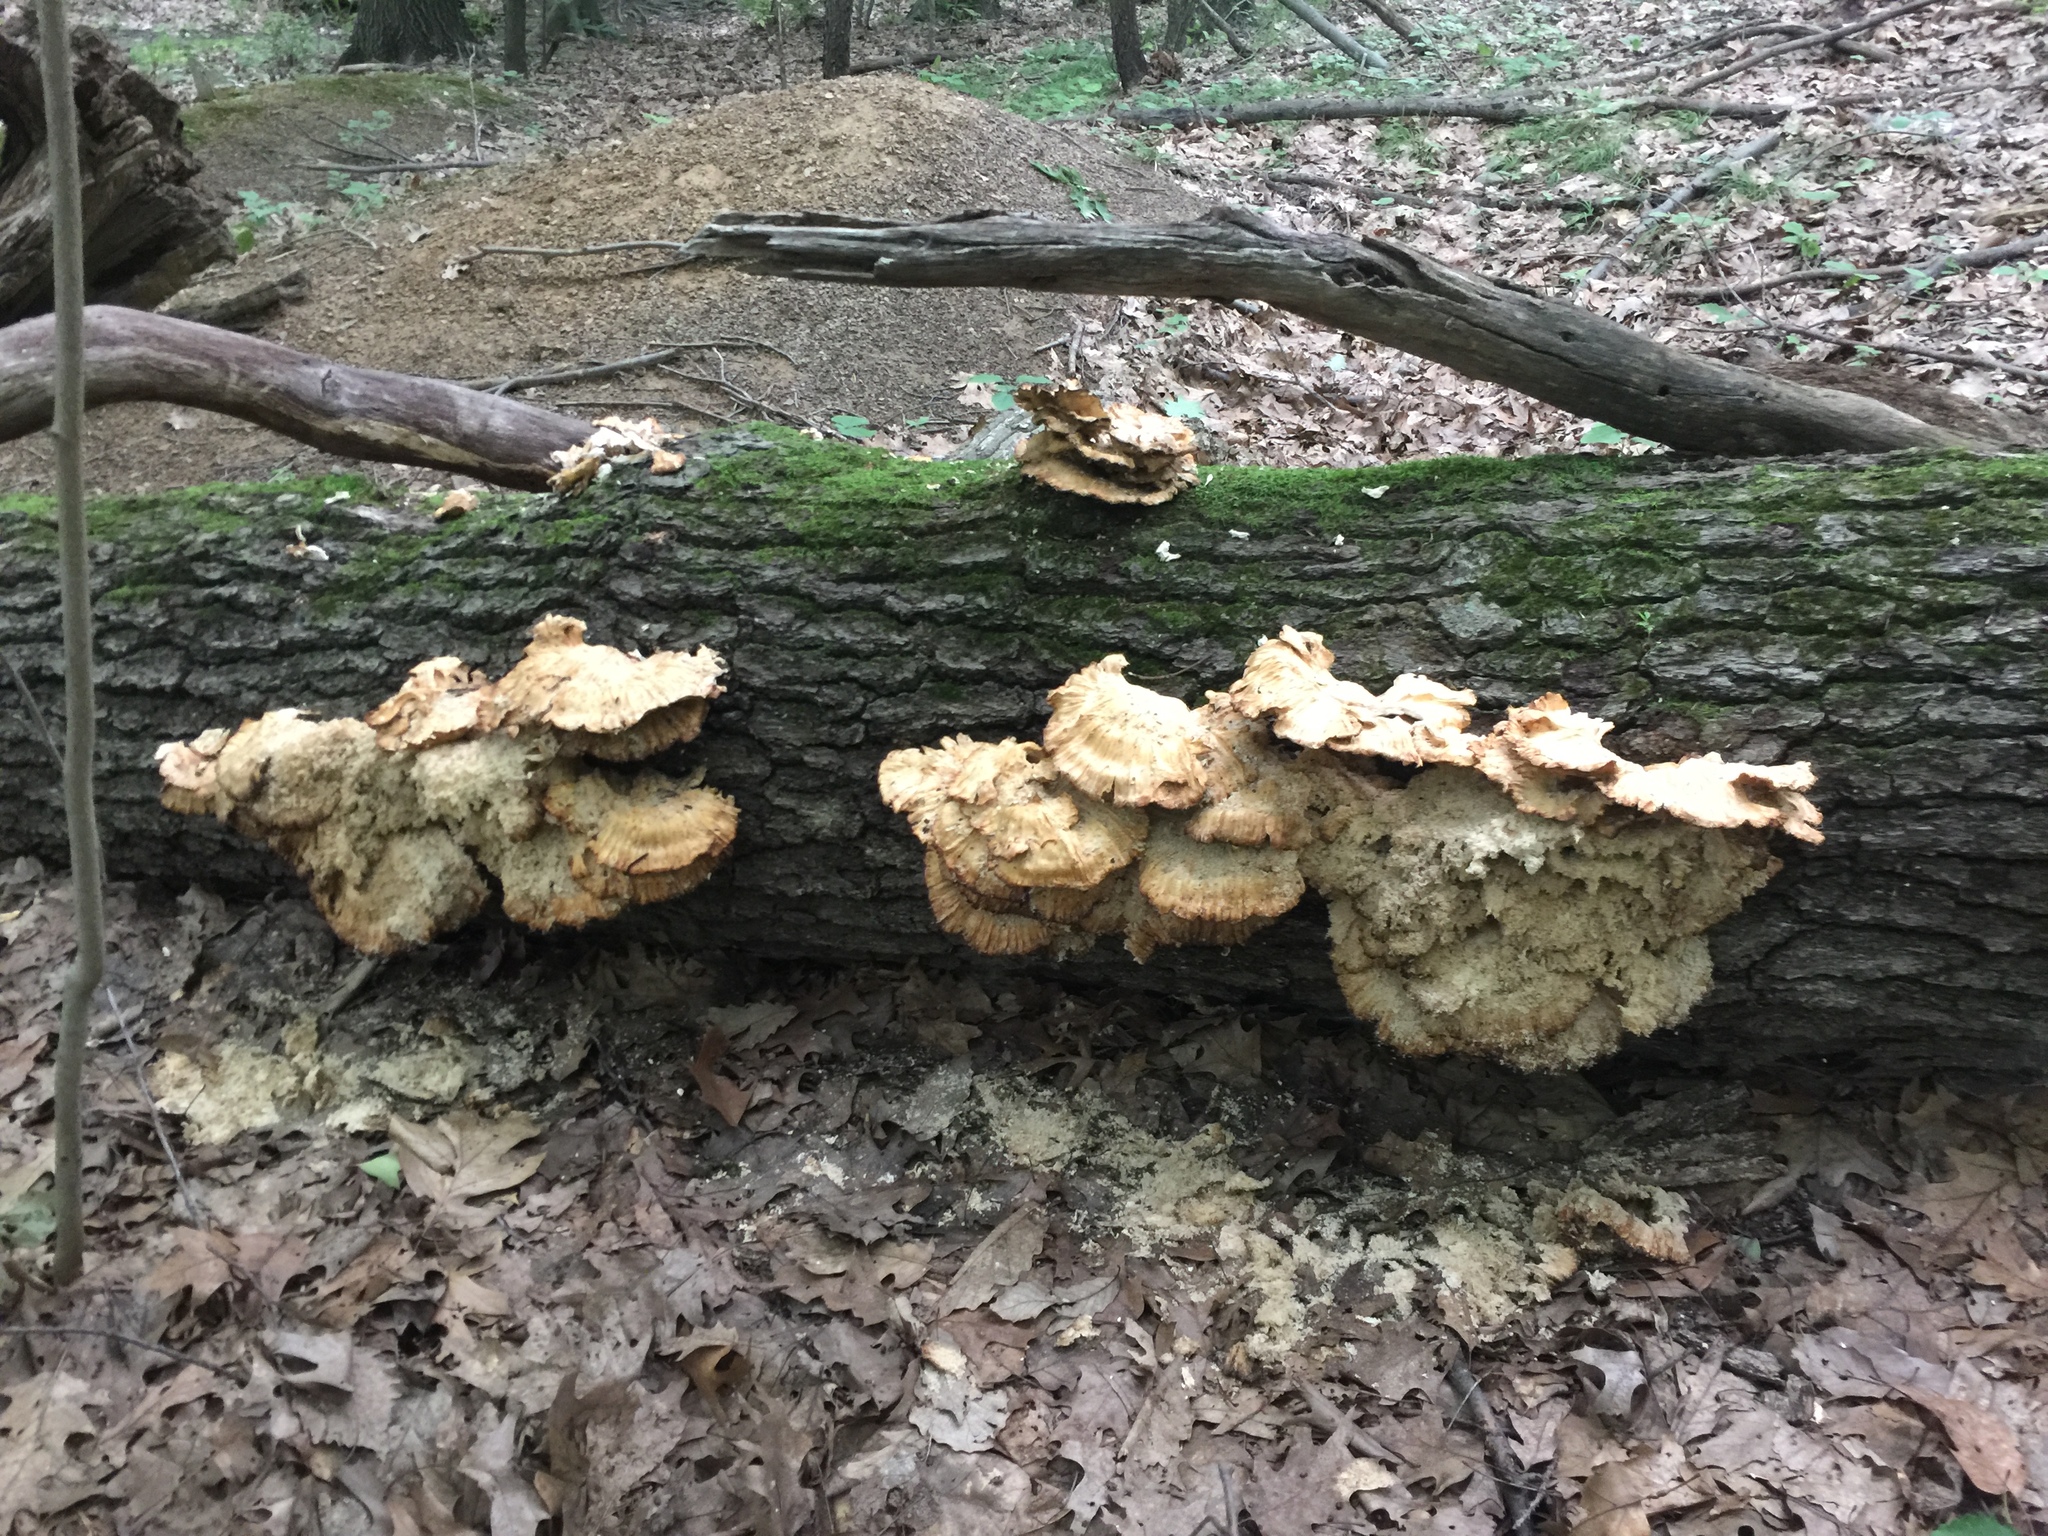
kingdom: Fungi
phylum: Basidiomycota
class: Agaricomycetes
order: Polyporales
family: Laetiporaceae
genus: Laetiporus
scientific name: Laetiporus sulphureus
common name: Chicken of the woods
